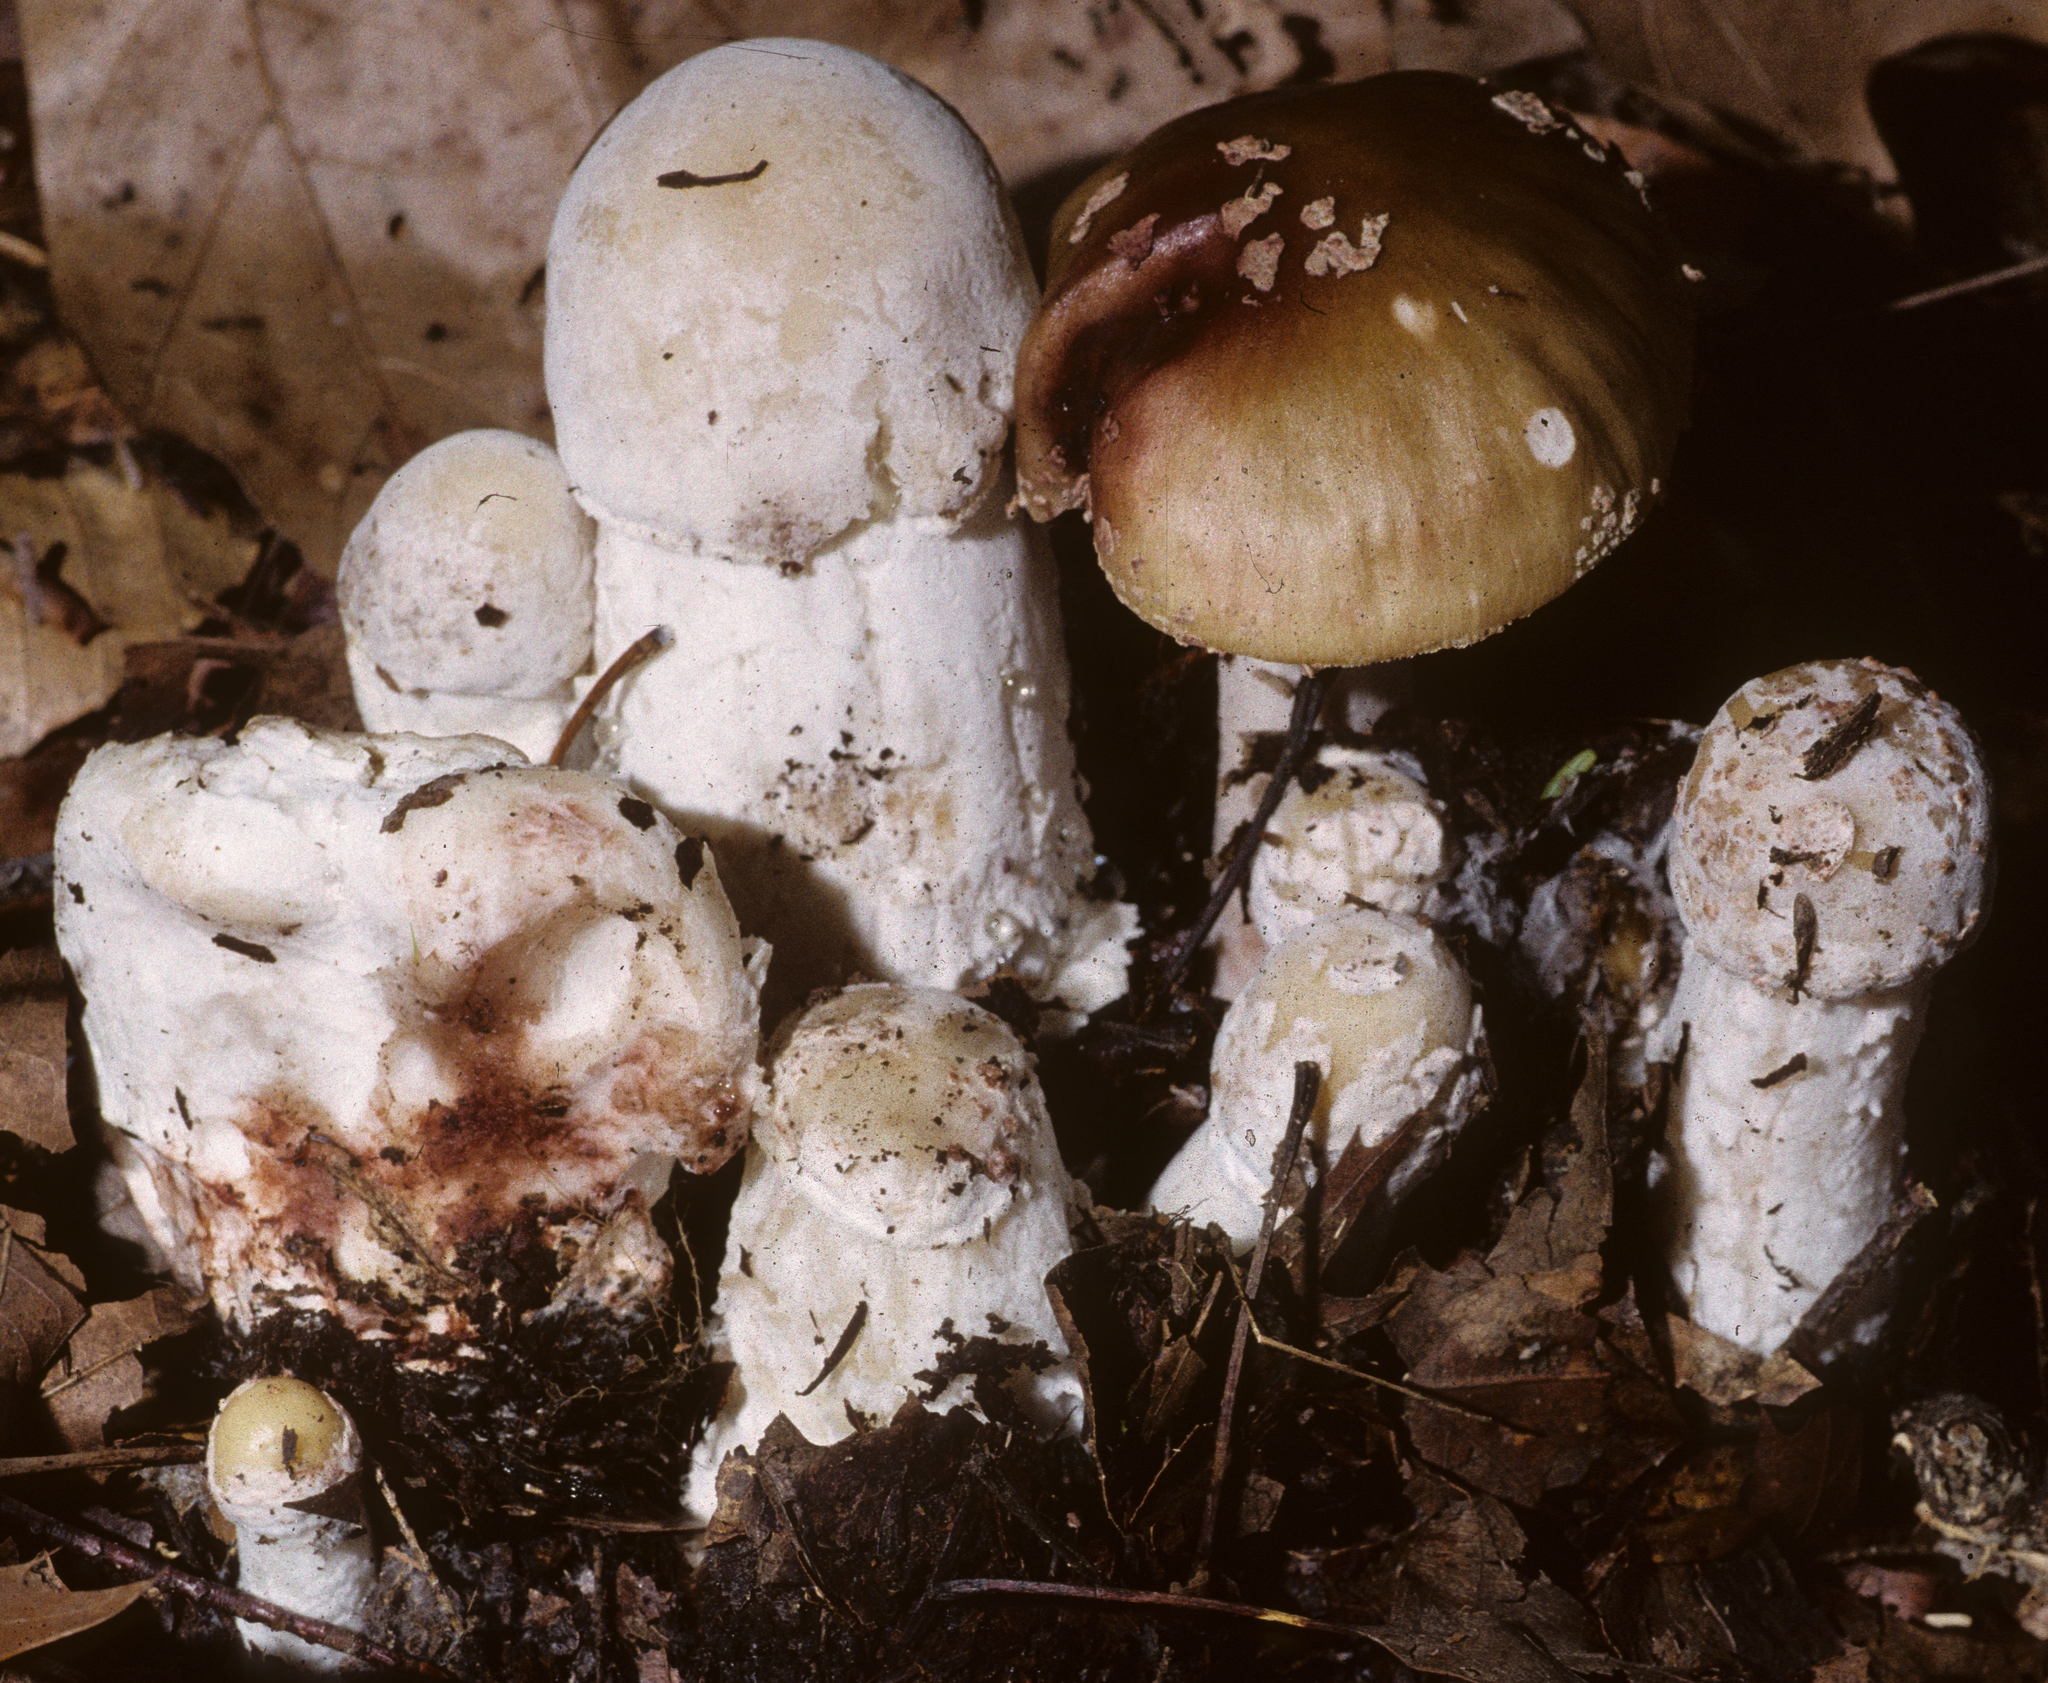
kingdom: Fungi
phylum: Ascomycota
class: Sordariomycetes
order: Hypocreales
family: Hypocreaceae
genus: Hypomyces
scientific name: Hypomyces hyalinus
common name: Amanita mold
